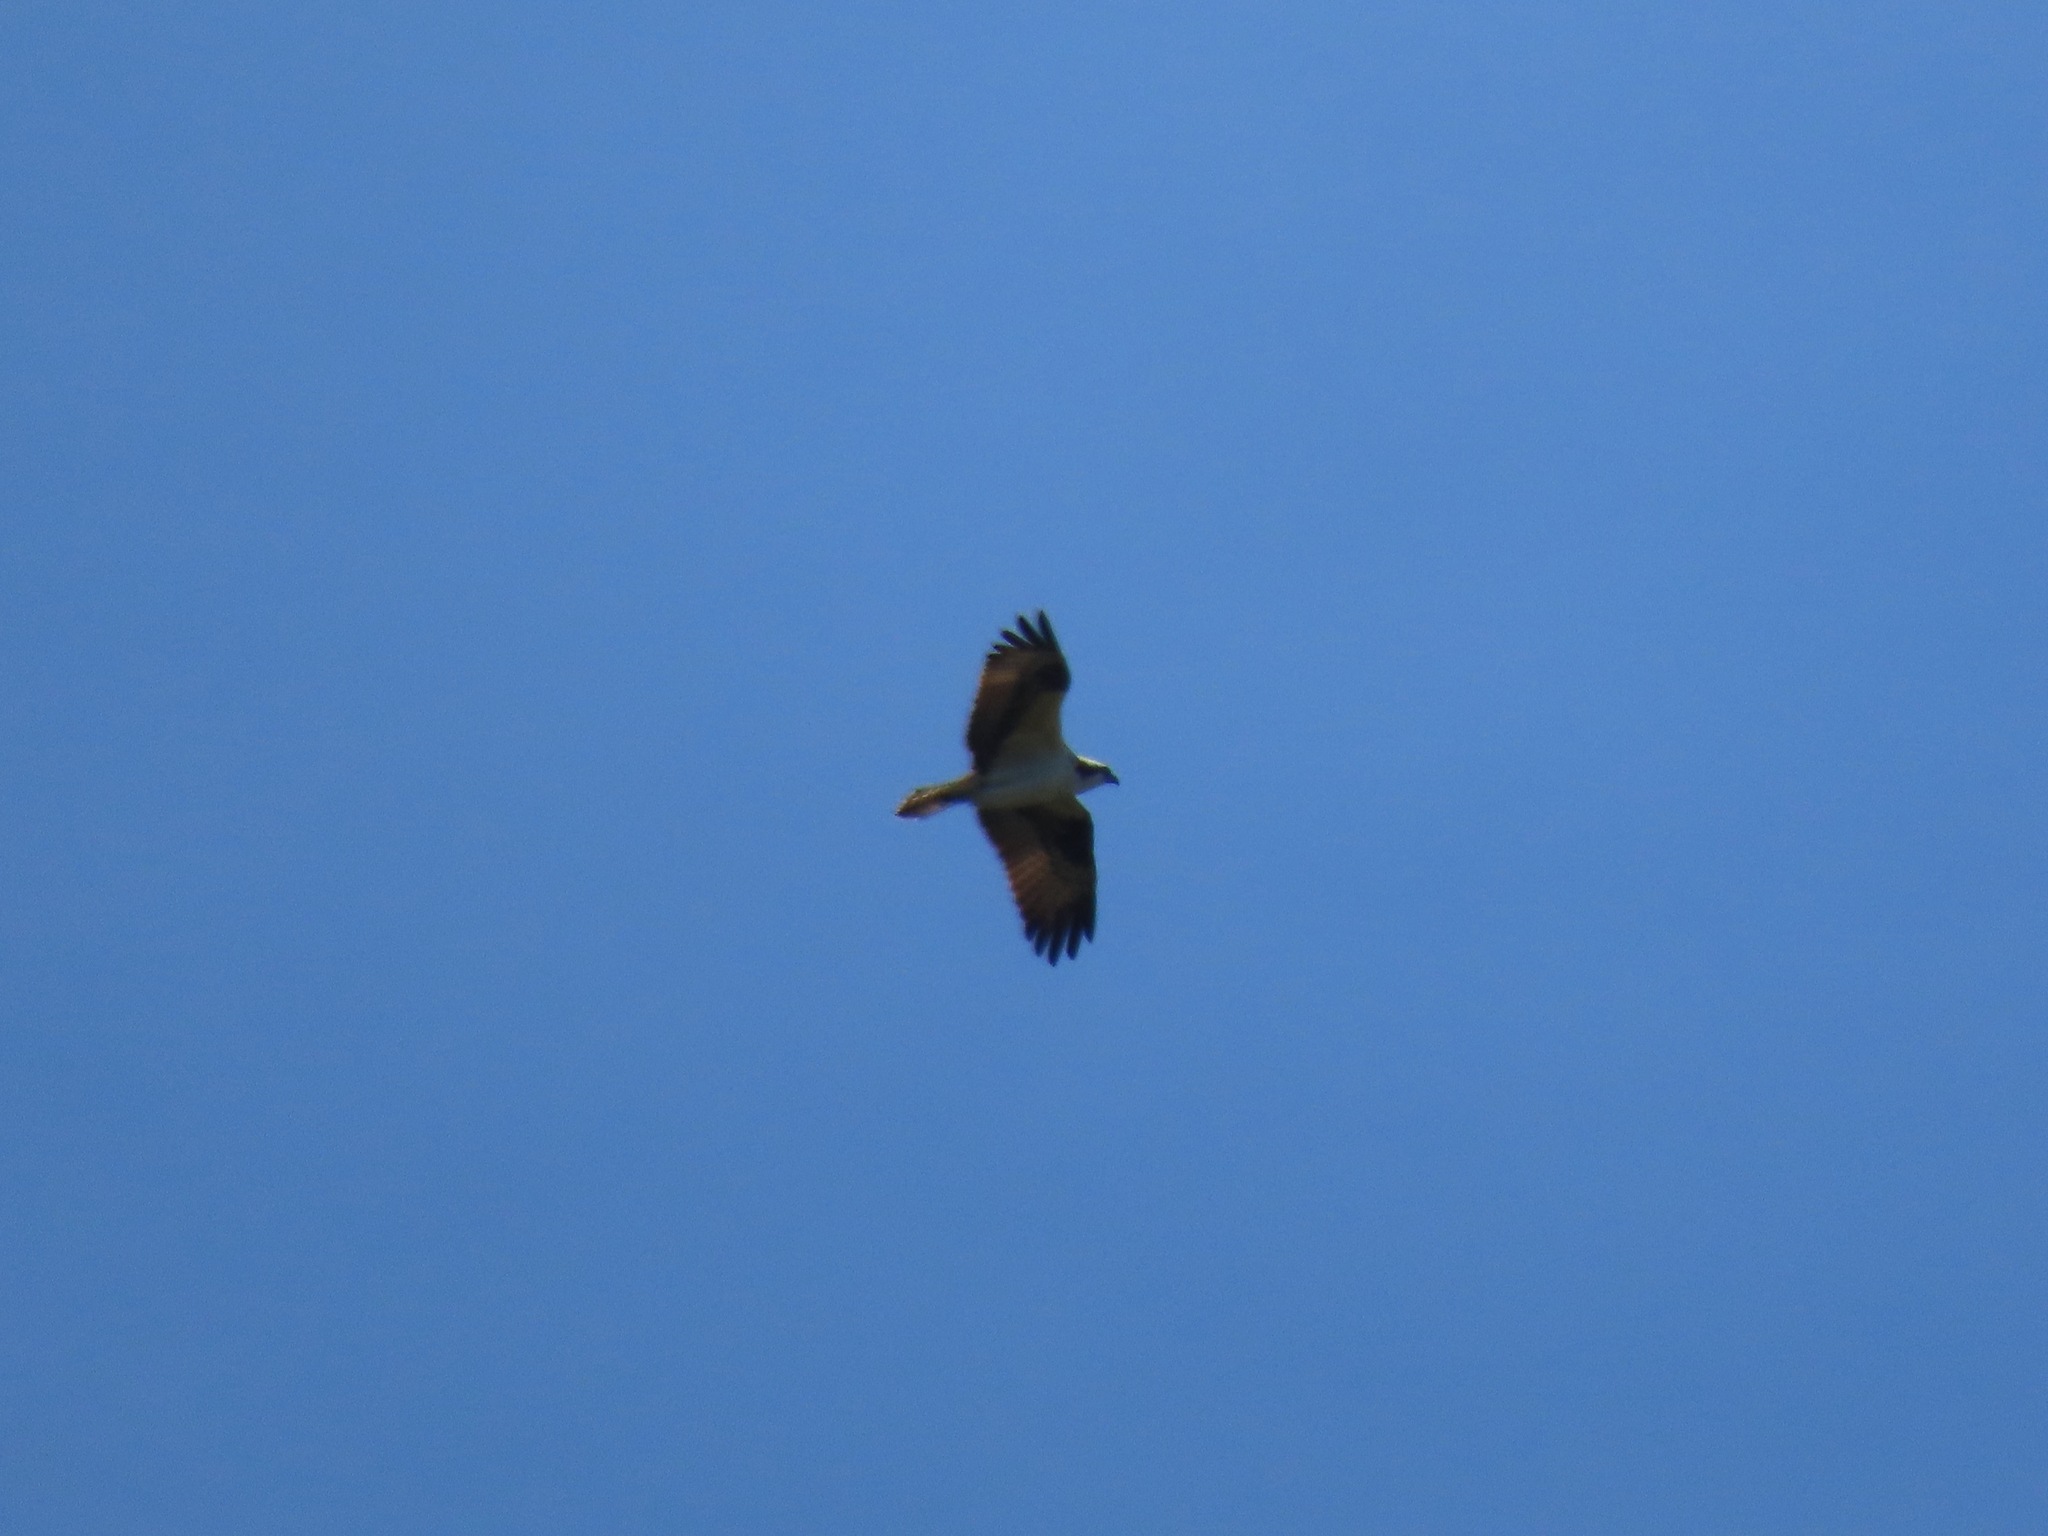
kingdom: Animalia
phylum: Chordata
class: Aves
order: Accipitriformes
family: Pandionidae
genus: Pandion
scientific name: Pandion haliaetus
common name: Osprey
